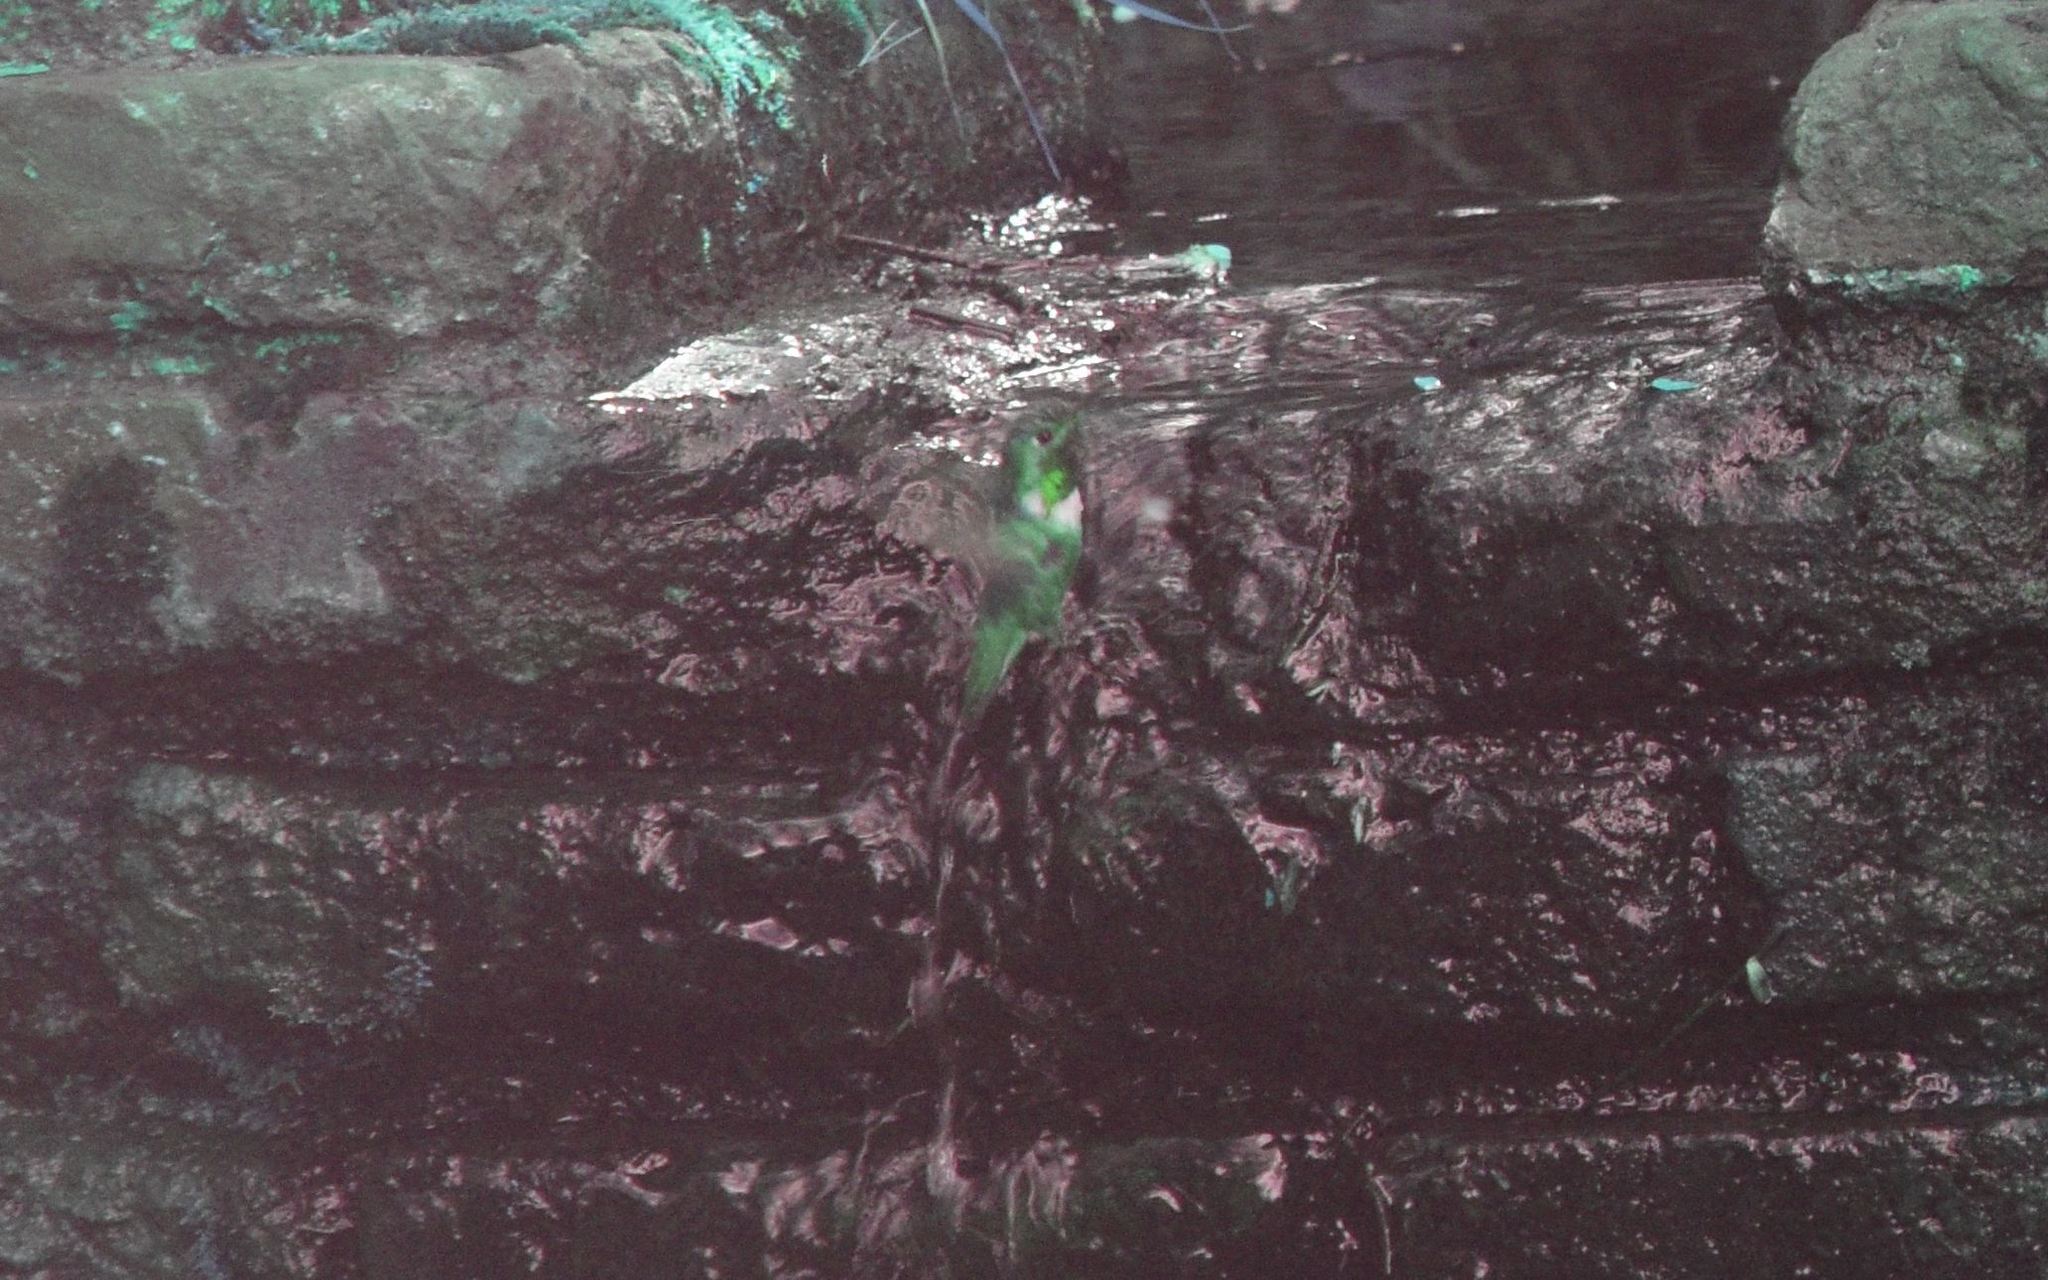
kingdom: Animalia
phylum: Chordata
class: Aves
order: Apodiformes
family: Trochilidae
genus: Selasphorus
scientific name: Selasphorus sasin
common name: Allen's hummingbird
